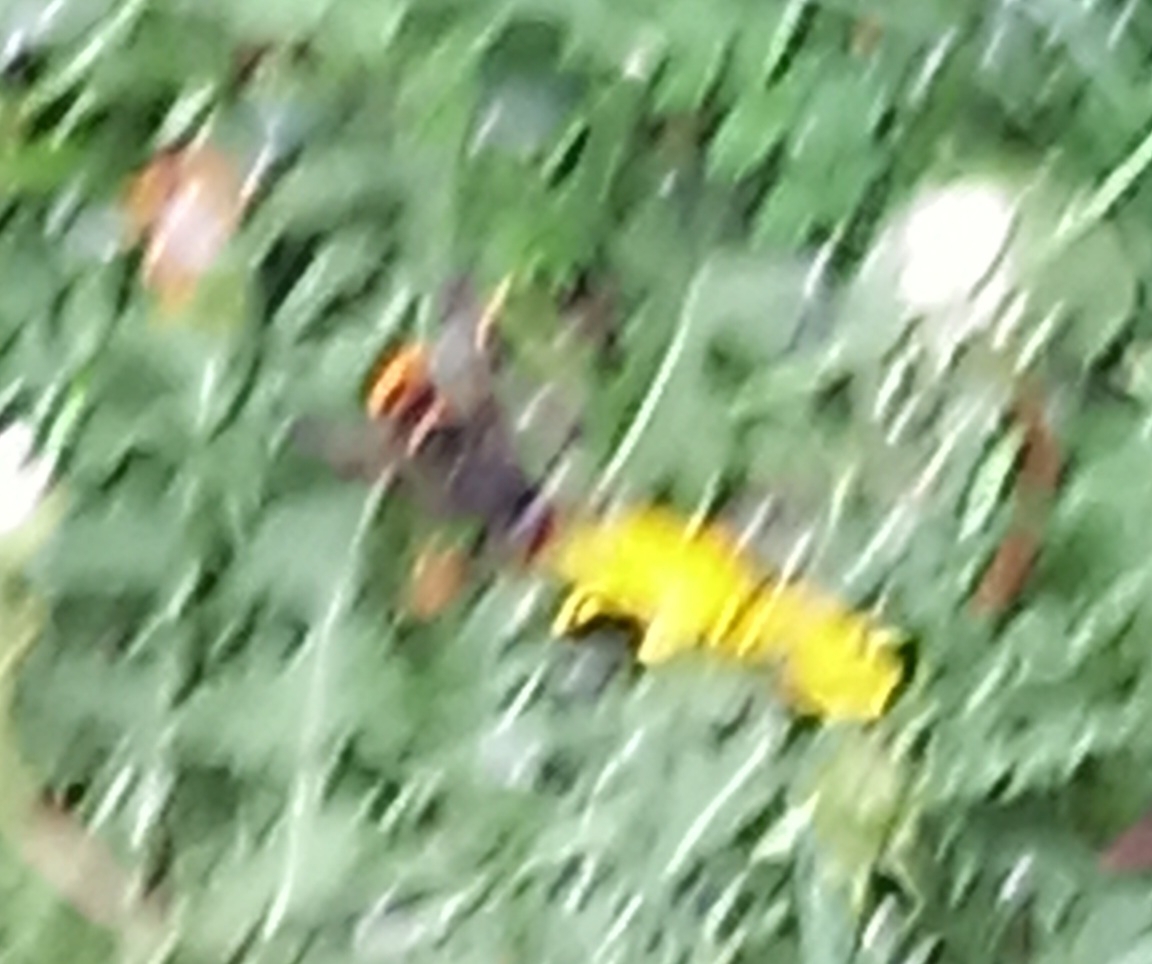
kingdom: Animalia
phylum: Arthropoda
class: Insecta
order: Hymenoptera
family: Vespidae
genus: Vespa
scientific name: Vespa velutina
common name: Asian hornet
